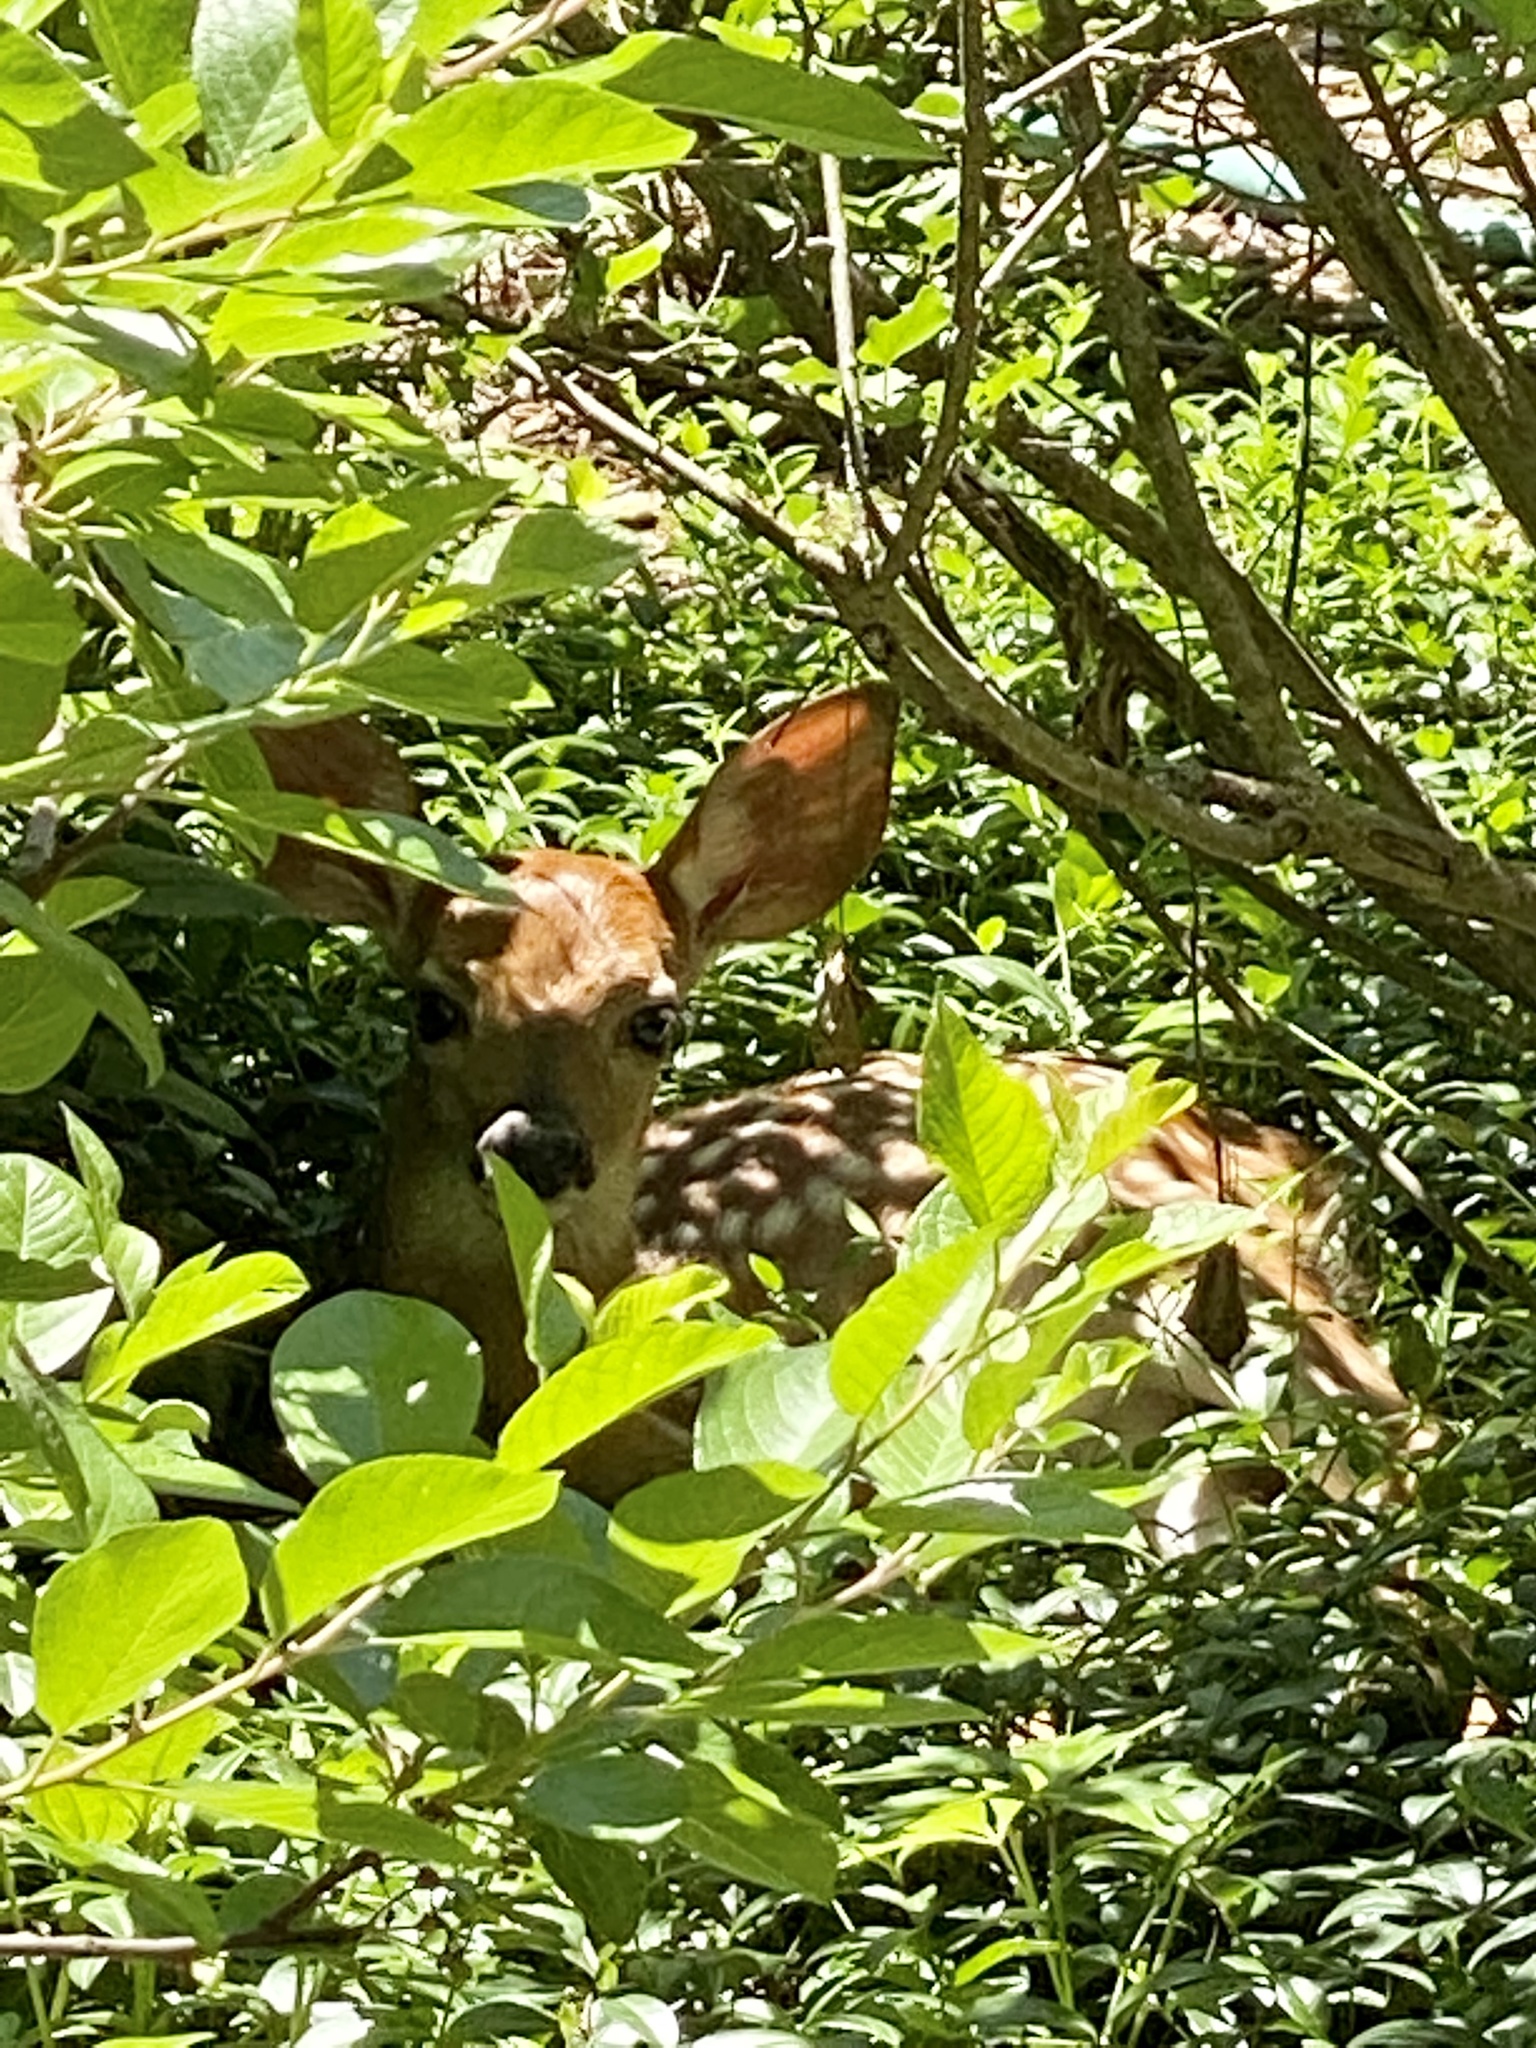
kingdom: Animalia
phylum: Chordata
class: Mammalia
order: Artiodactyla
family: Cervidae
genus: Odocoileus
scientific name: Odocoileus virginianus
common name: White-tailed deer
